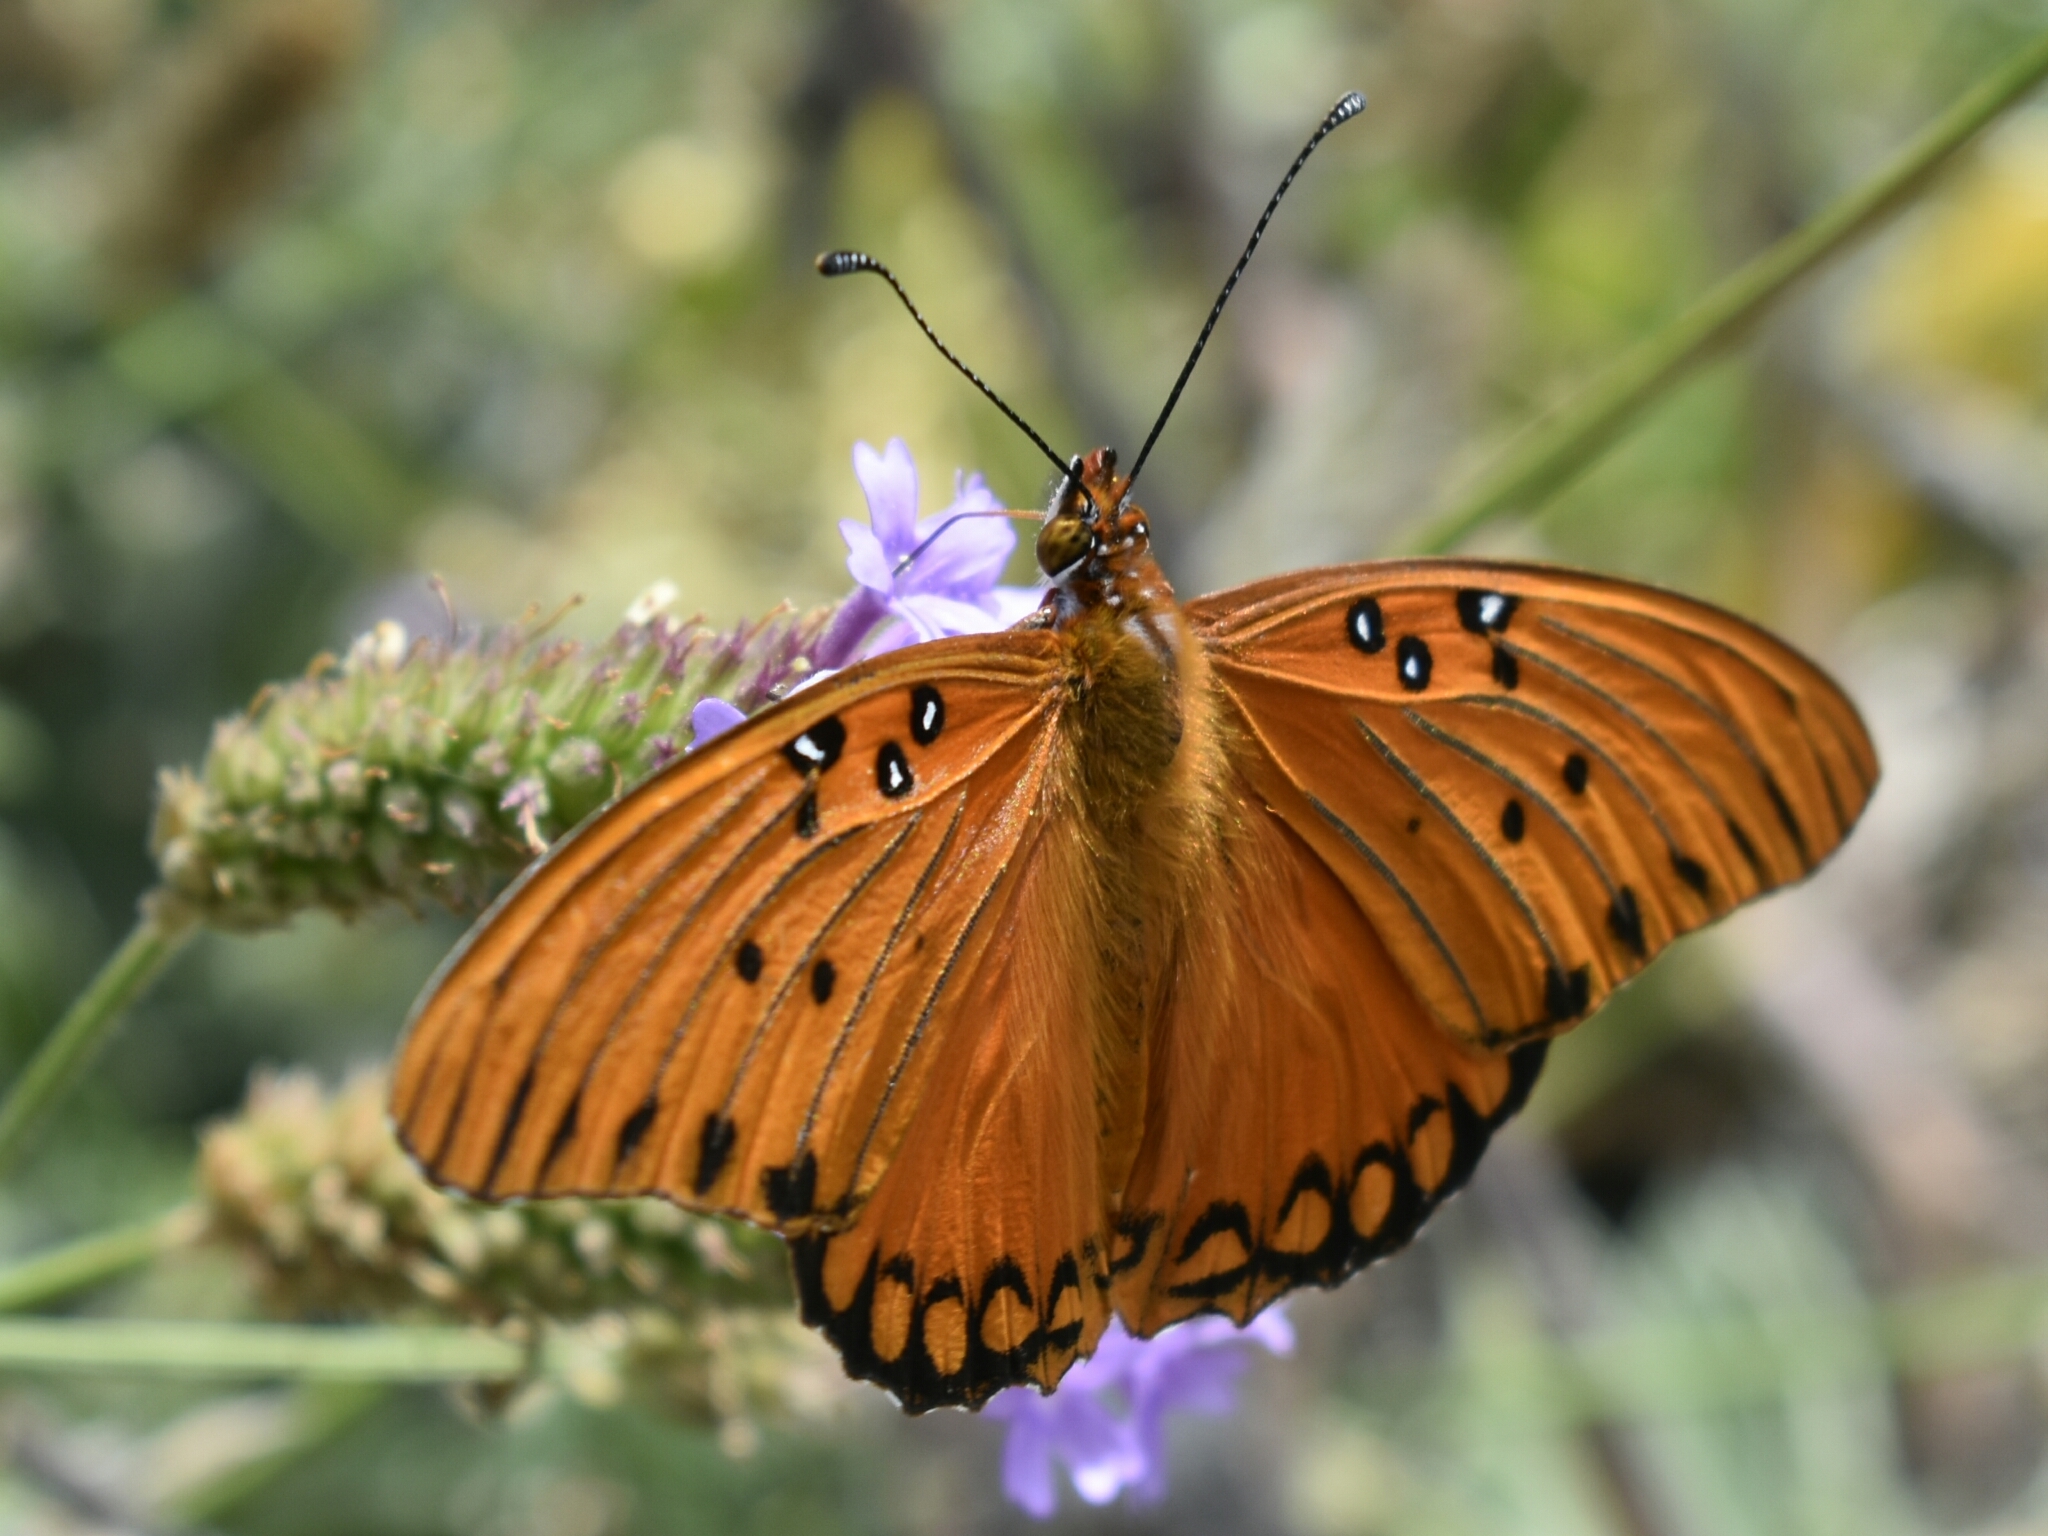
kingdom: Animalia
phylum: Arthropoda
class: Insecta
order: Lepidoptera
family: Nymphalidae
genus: Dione
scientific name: Dione vanillae
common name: Gulf fritillary
